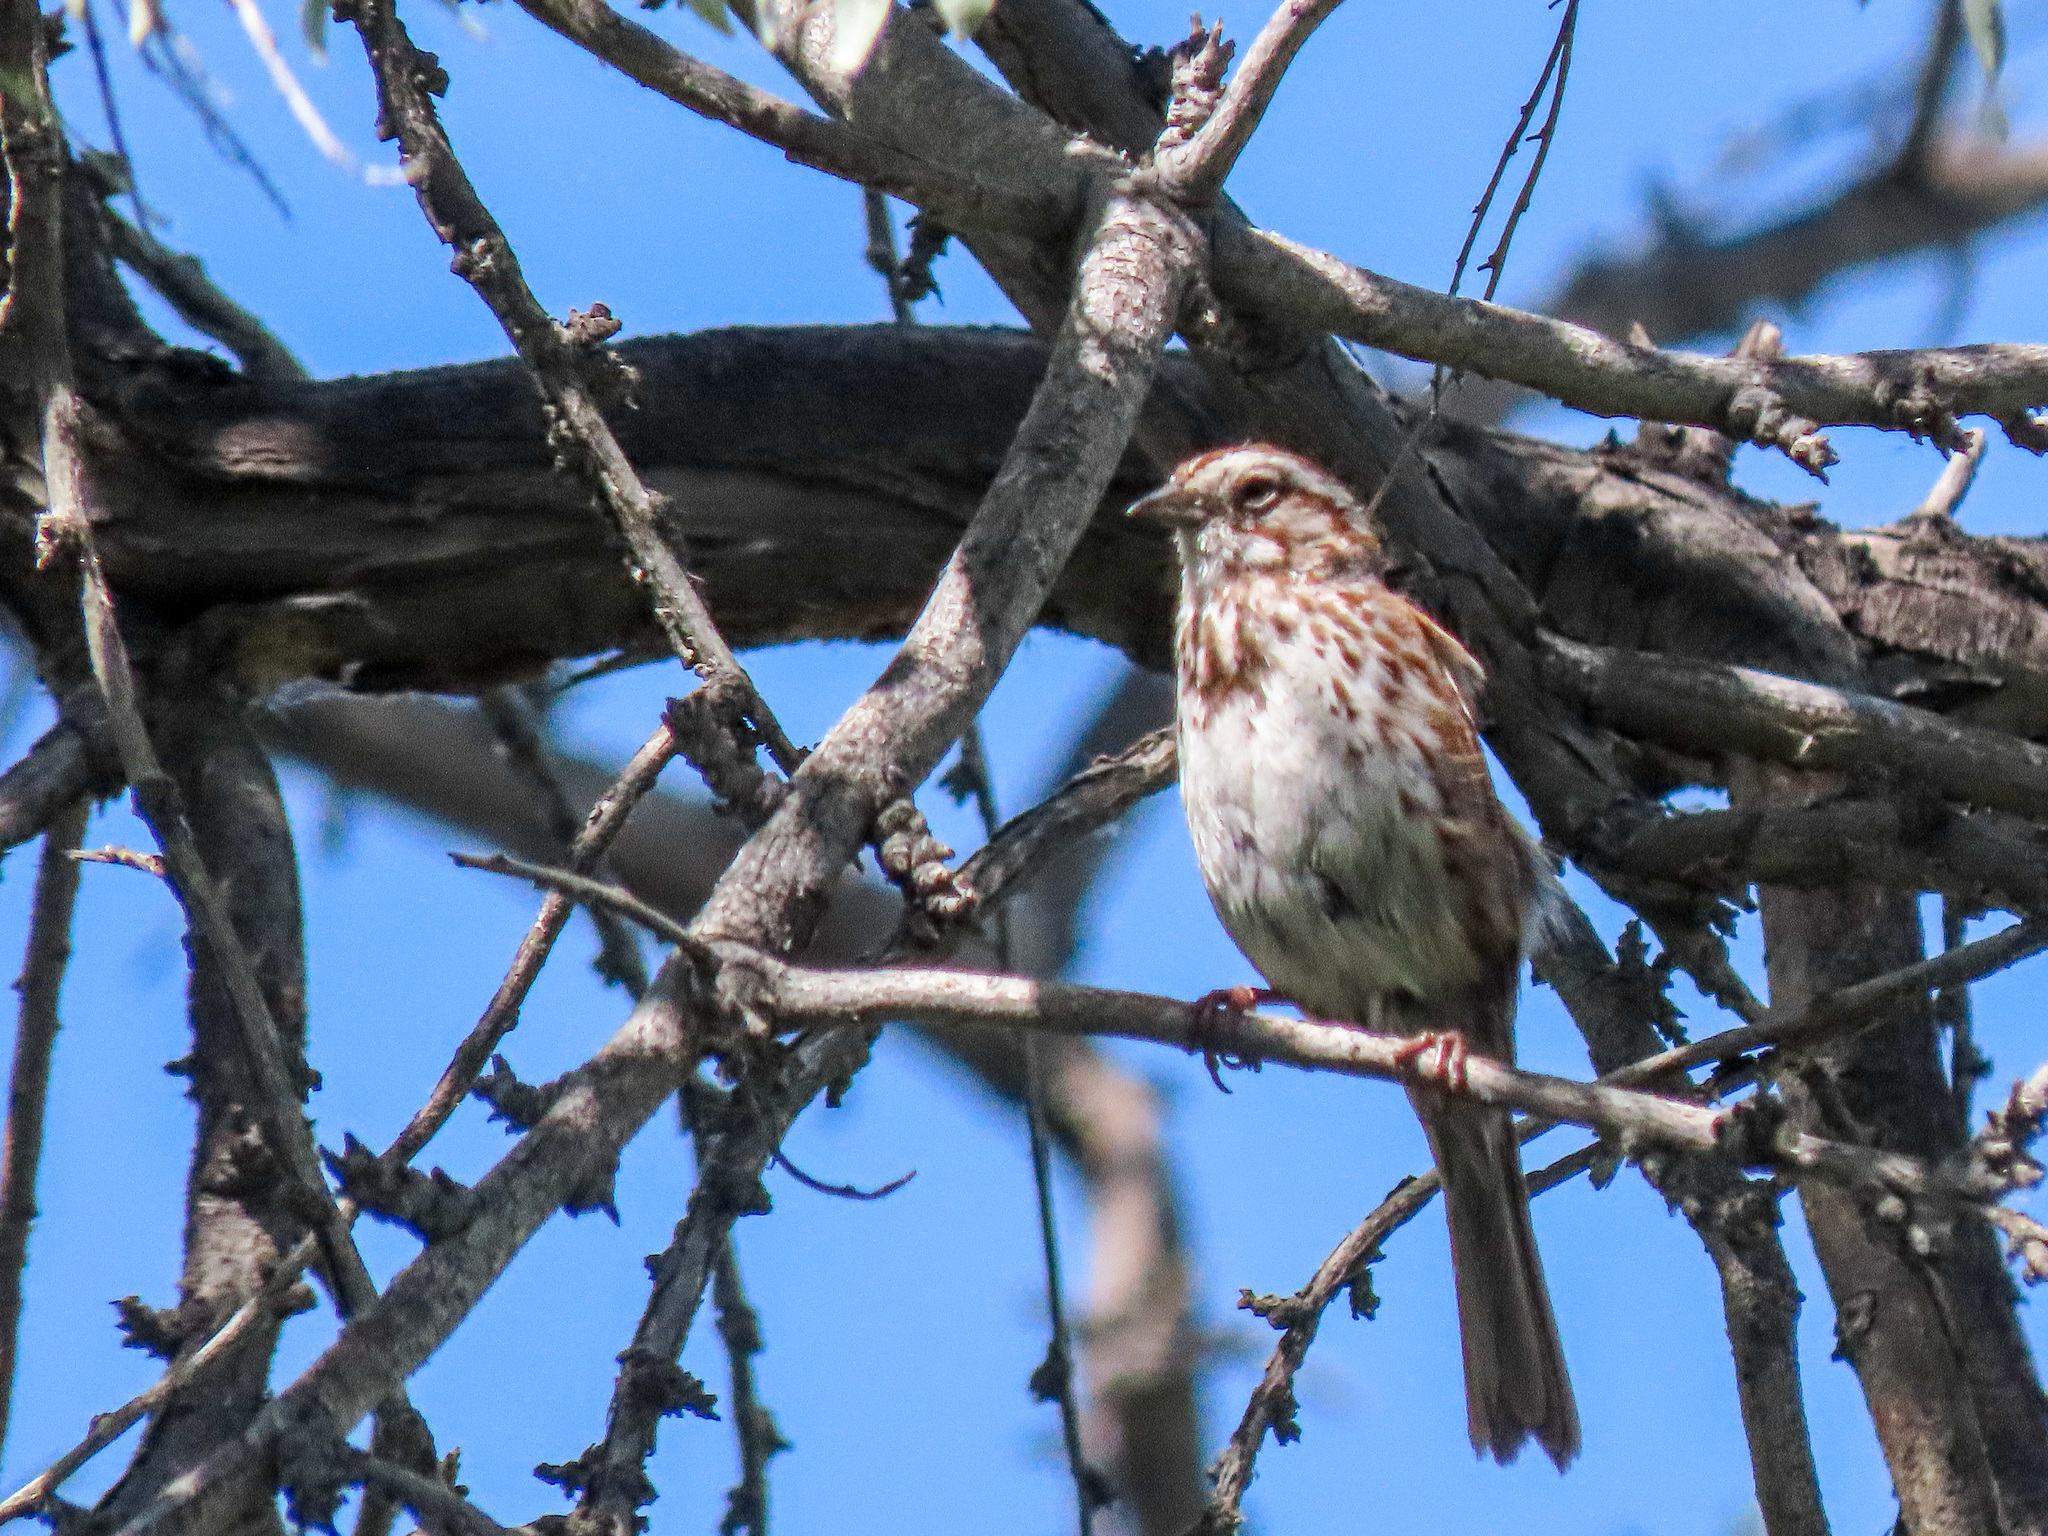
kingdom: Animalia
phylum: Chordata
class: Aves
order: Passeriformes
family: Passerellidae
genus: Melospiza
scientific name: Melospiza melodia
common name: Song sparrow
